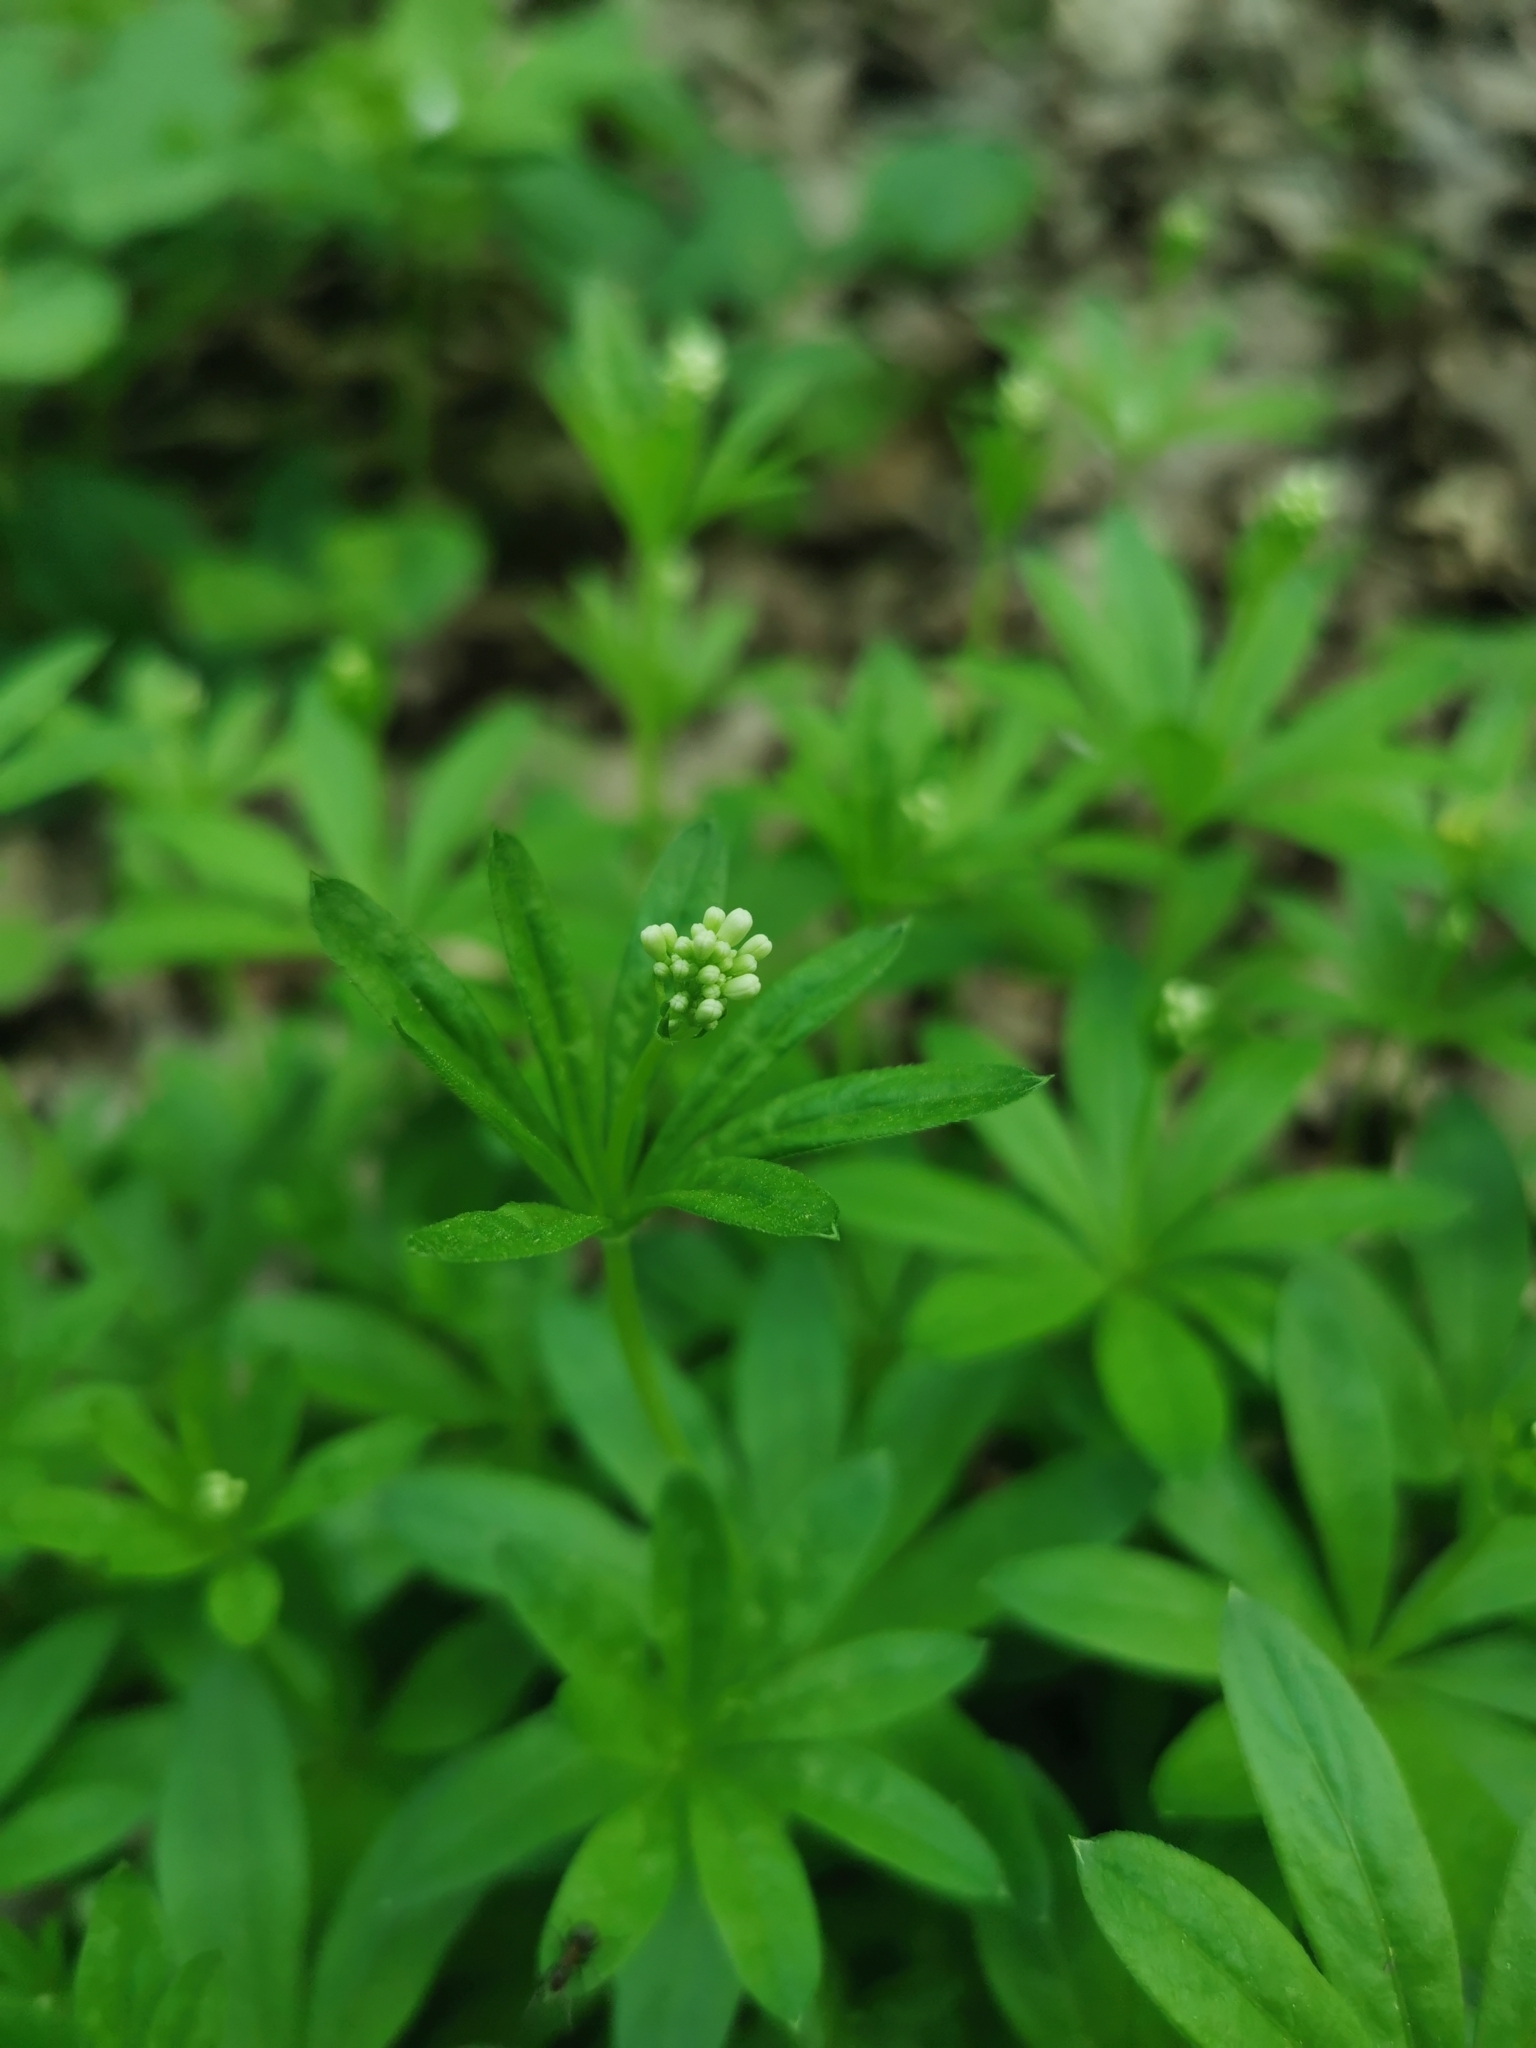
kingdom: Plantae
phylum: Tracheophyta
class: Magnoliopsida
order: Gentianales
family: Rubiaceae
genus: Galium
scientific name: Galium odoratum
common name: Sweet woodruff
